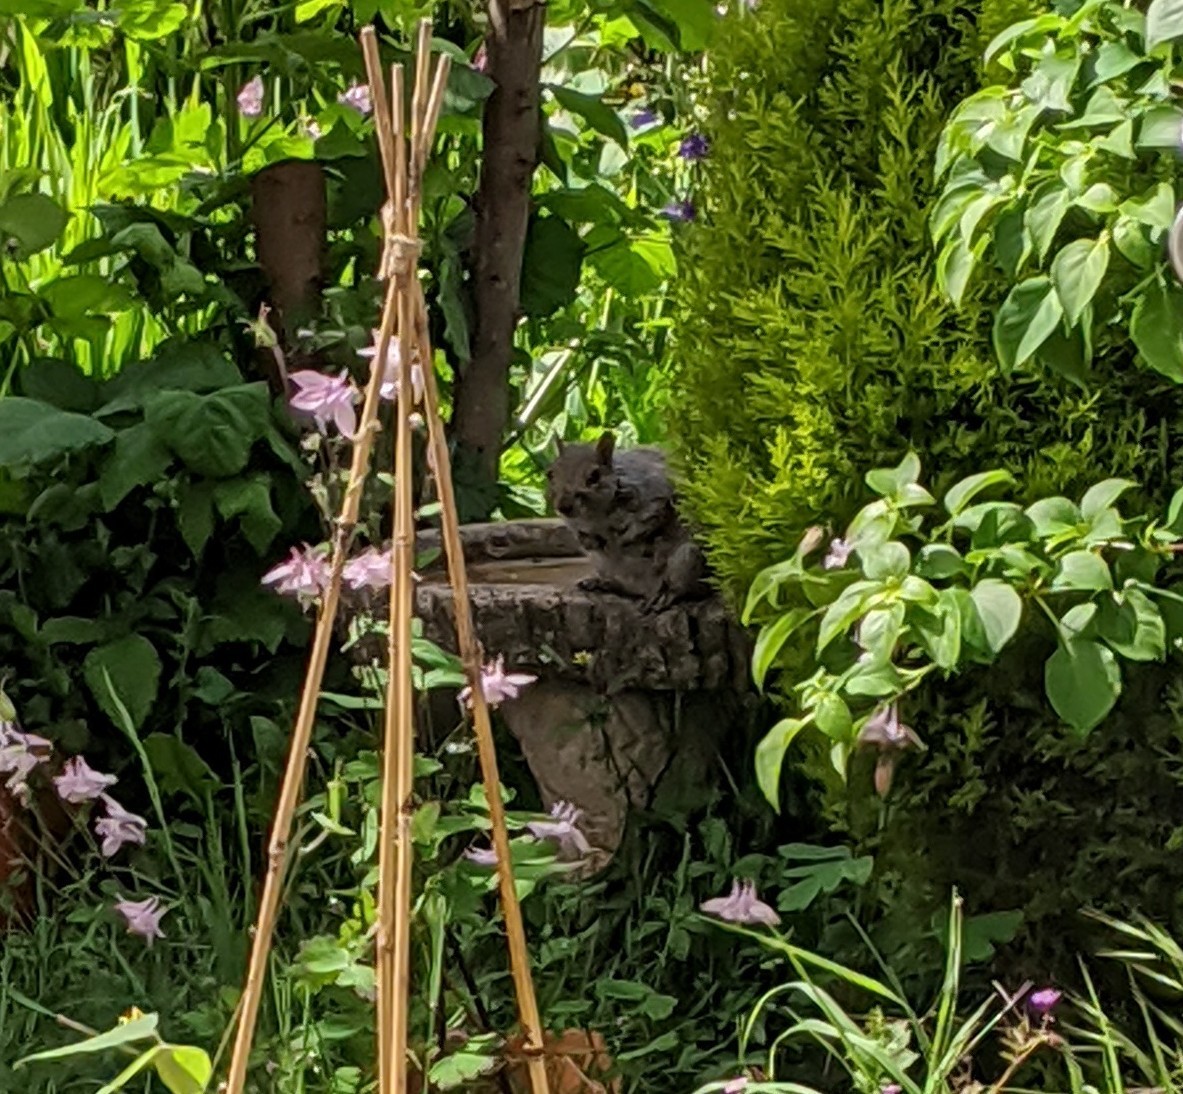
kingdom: Animalia
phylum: Chordata
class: Mammalia
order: Rodentia
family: Sciuridae
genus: Sciurus
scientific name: Sciurus carolinensis
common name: Eastern gray squirrel
